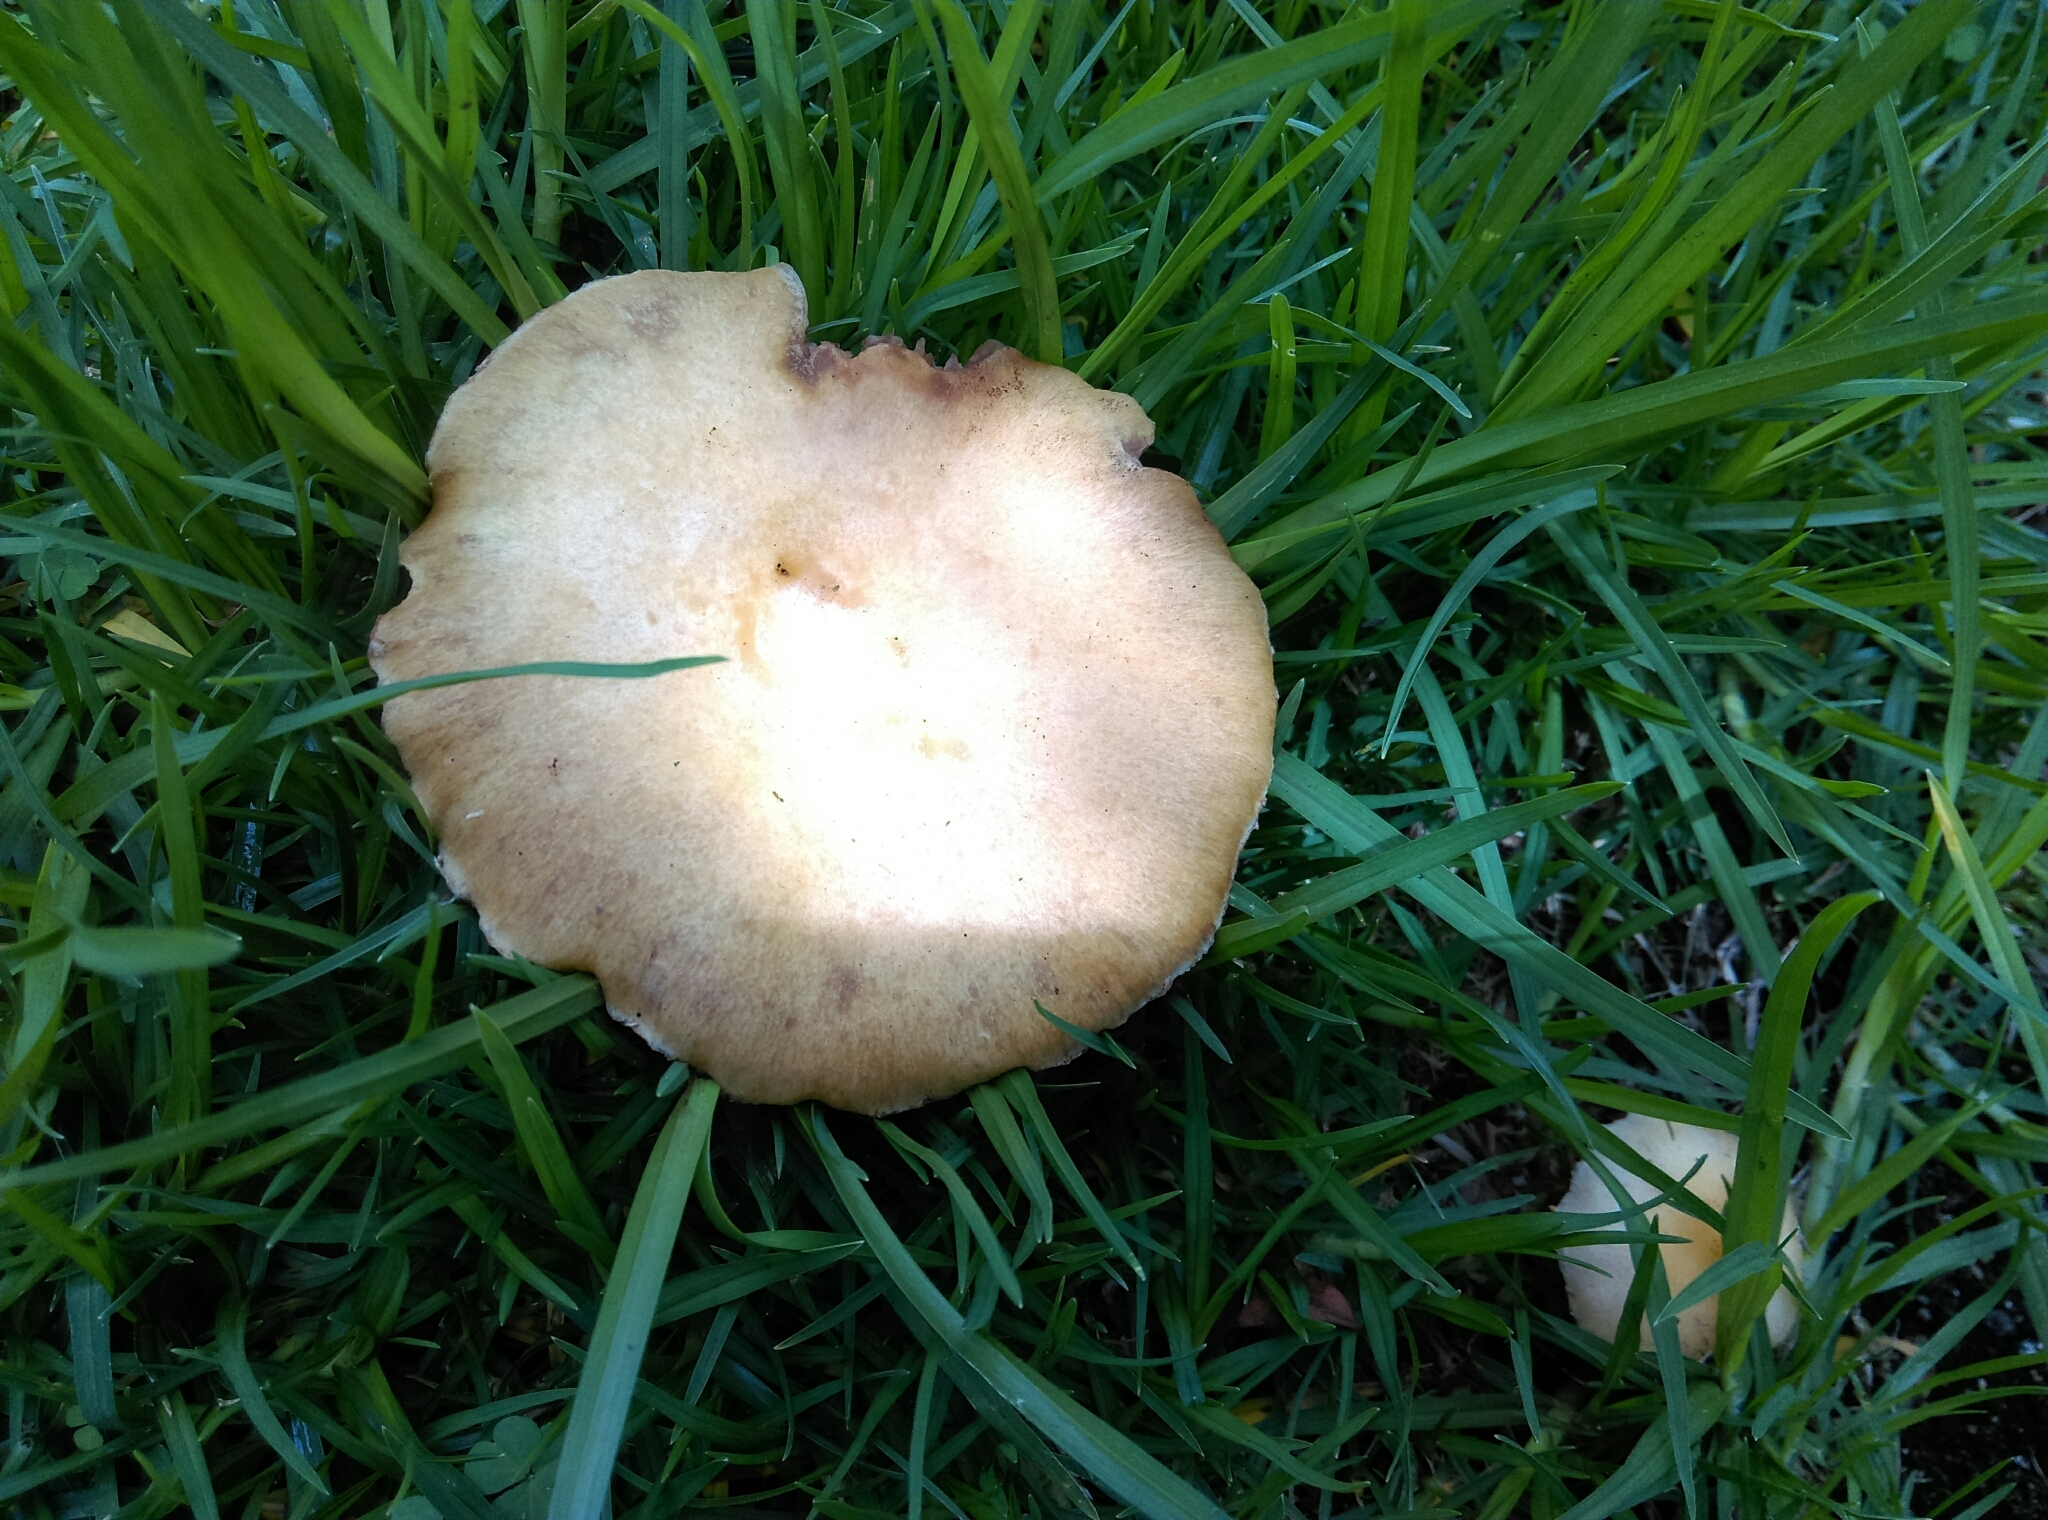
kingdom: Fungi
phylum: Basidiomycota
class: Agaricomycetes
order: Agaricales
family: Hymenogastraceae
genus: Psilocybe
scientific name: Psilocybe coronilla
